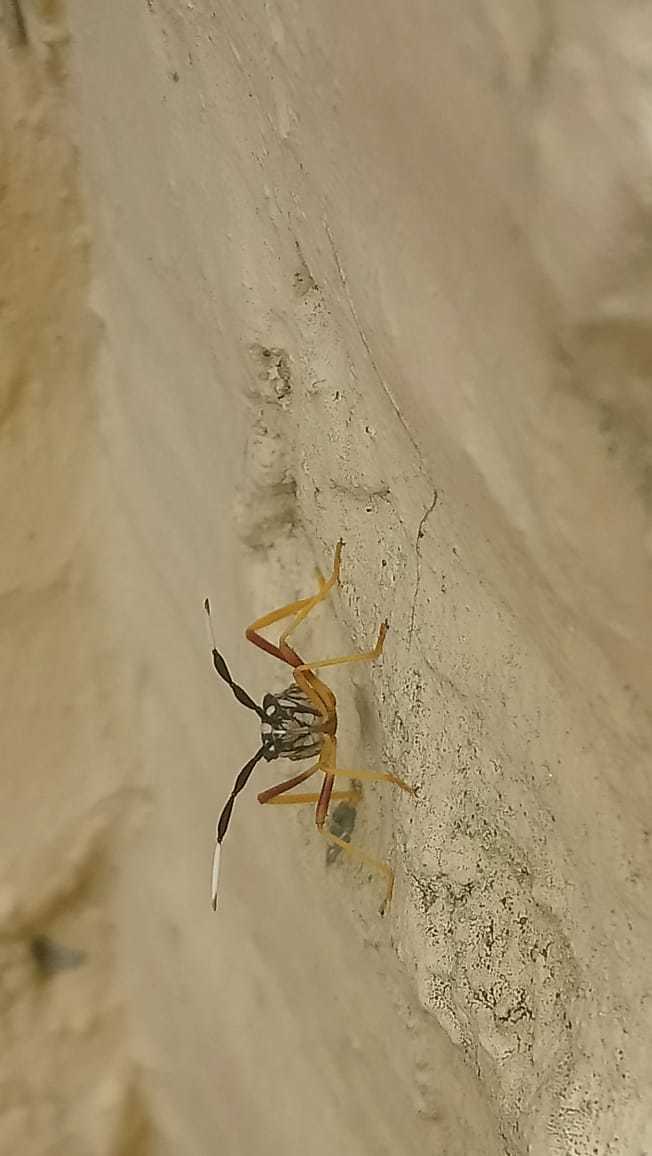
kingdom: Animalia
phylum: Arthropoda
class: Insecta
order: Hemiptera
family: Coreidae
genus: Holhymenia
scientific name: Holhymenia histrio
